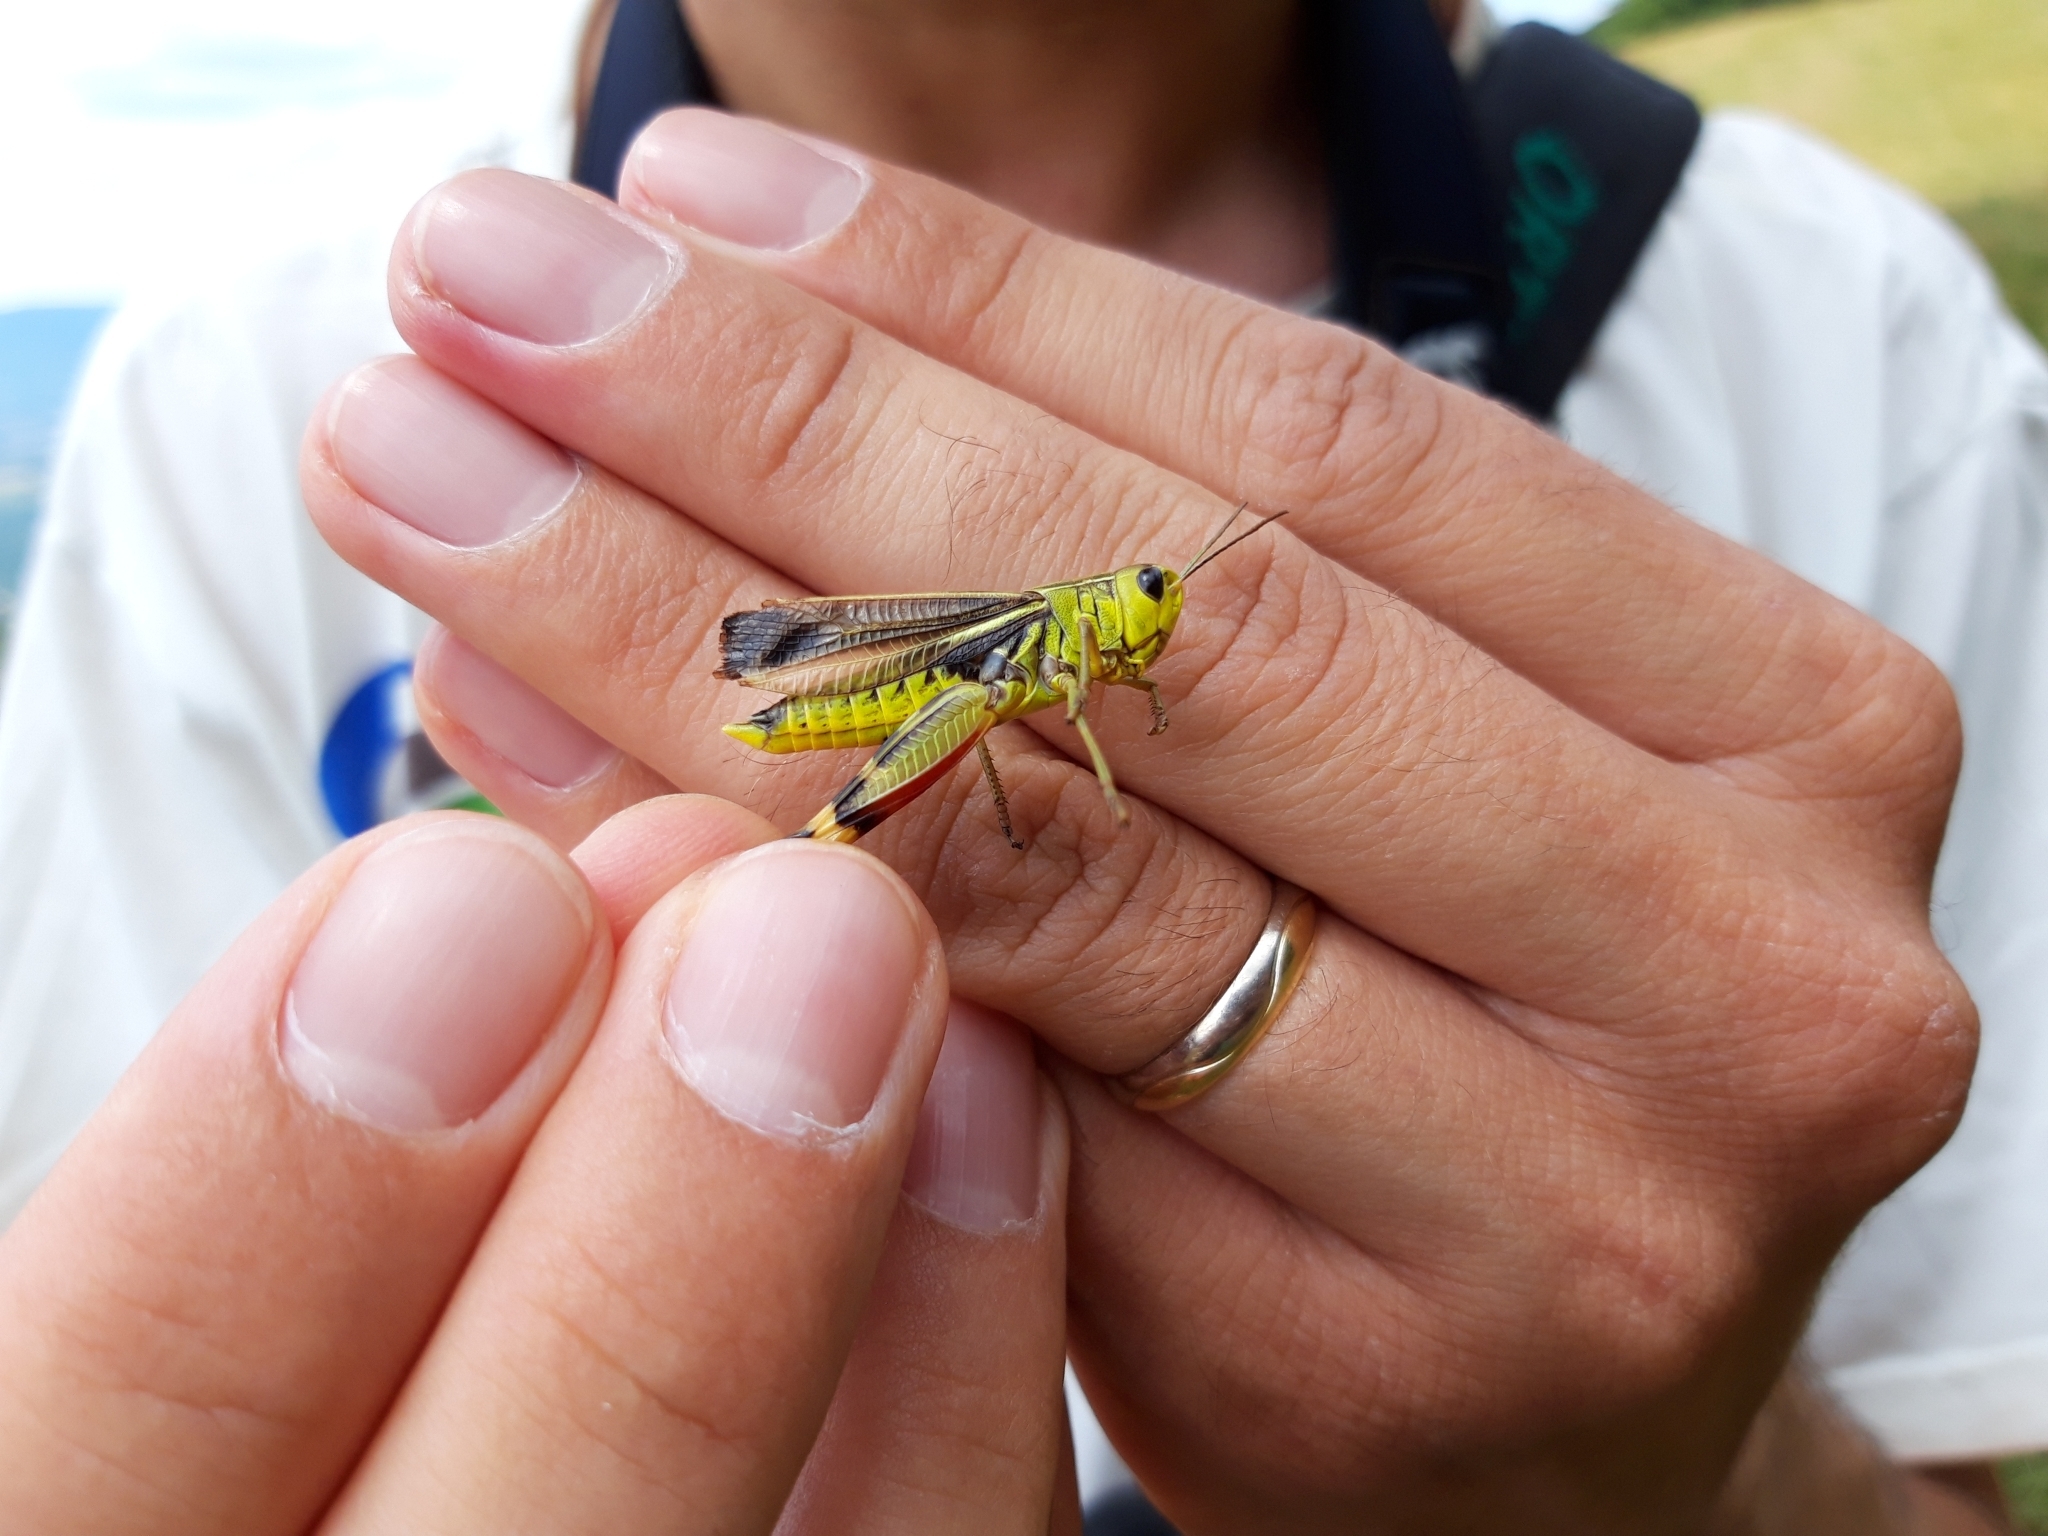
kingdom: Animalia
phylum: Arthropoda
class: Insecta
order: Orthoptera
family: Acrididae
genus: Arcyptera
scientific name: Arcyptera fusca
